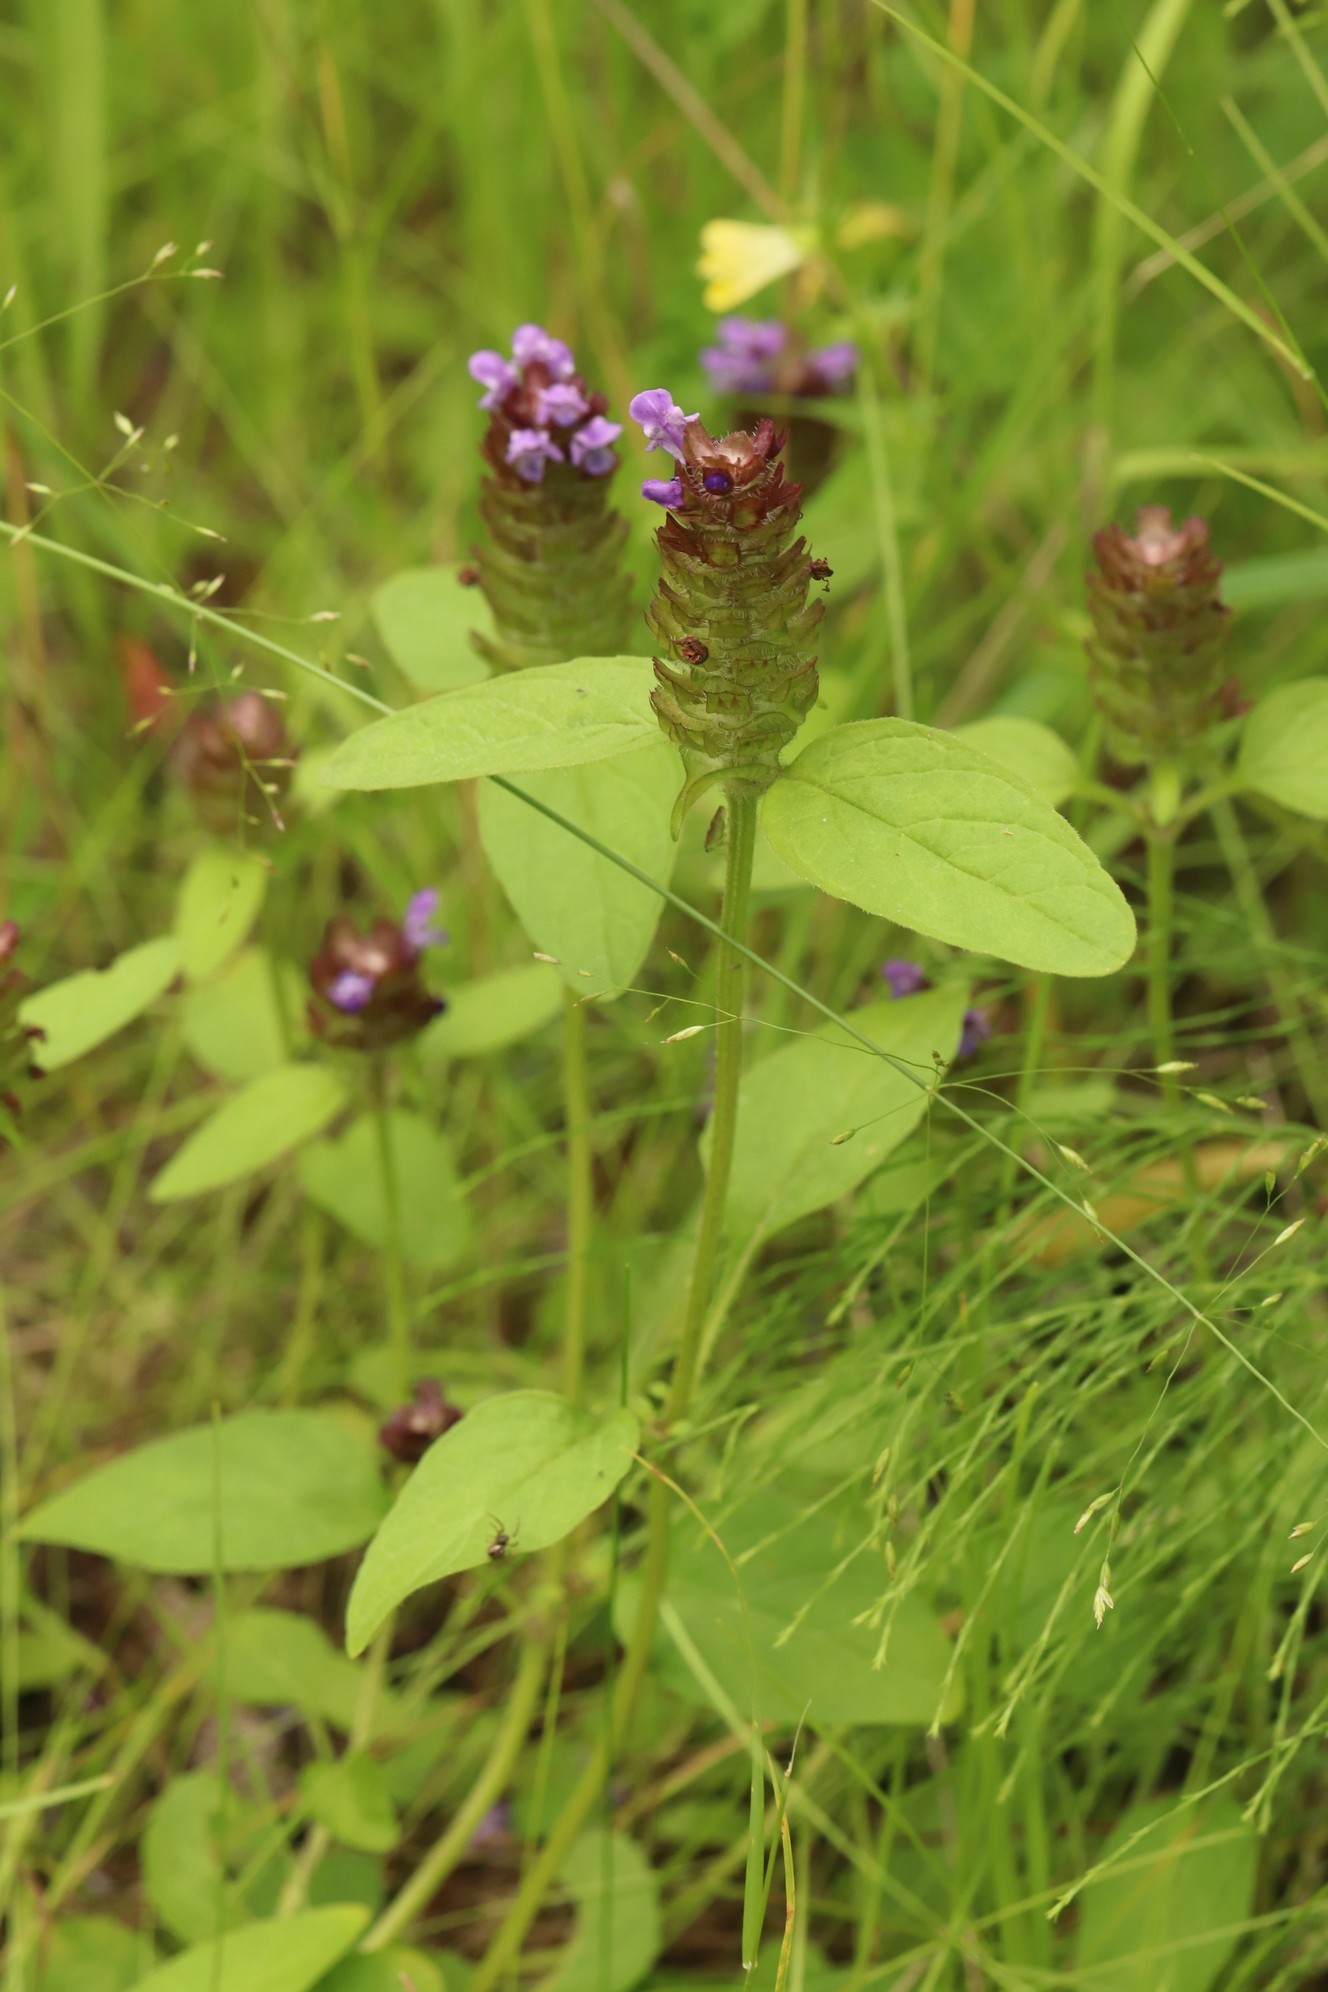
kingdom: Plantae
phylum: Tracheophyta
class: Magnoliopsida
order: Lamiales
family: Lamiaceae
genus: Prunella
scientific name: Prunella vulgaris
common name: Heal-all
